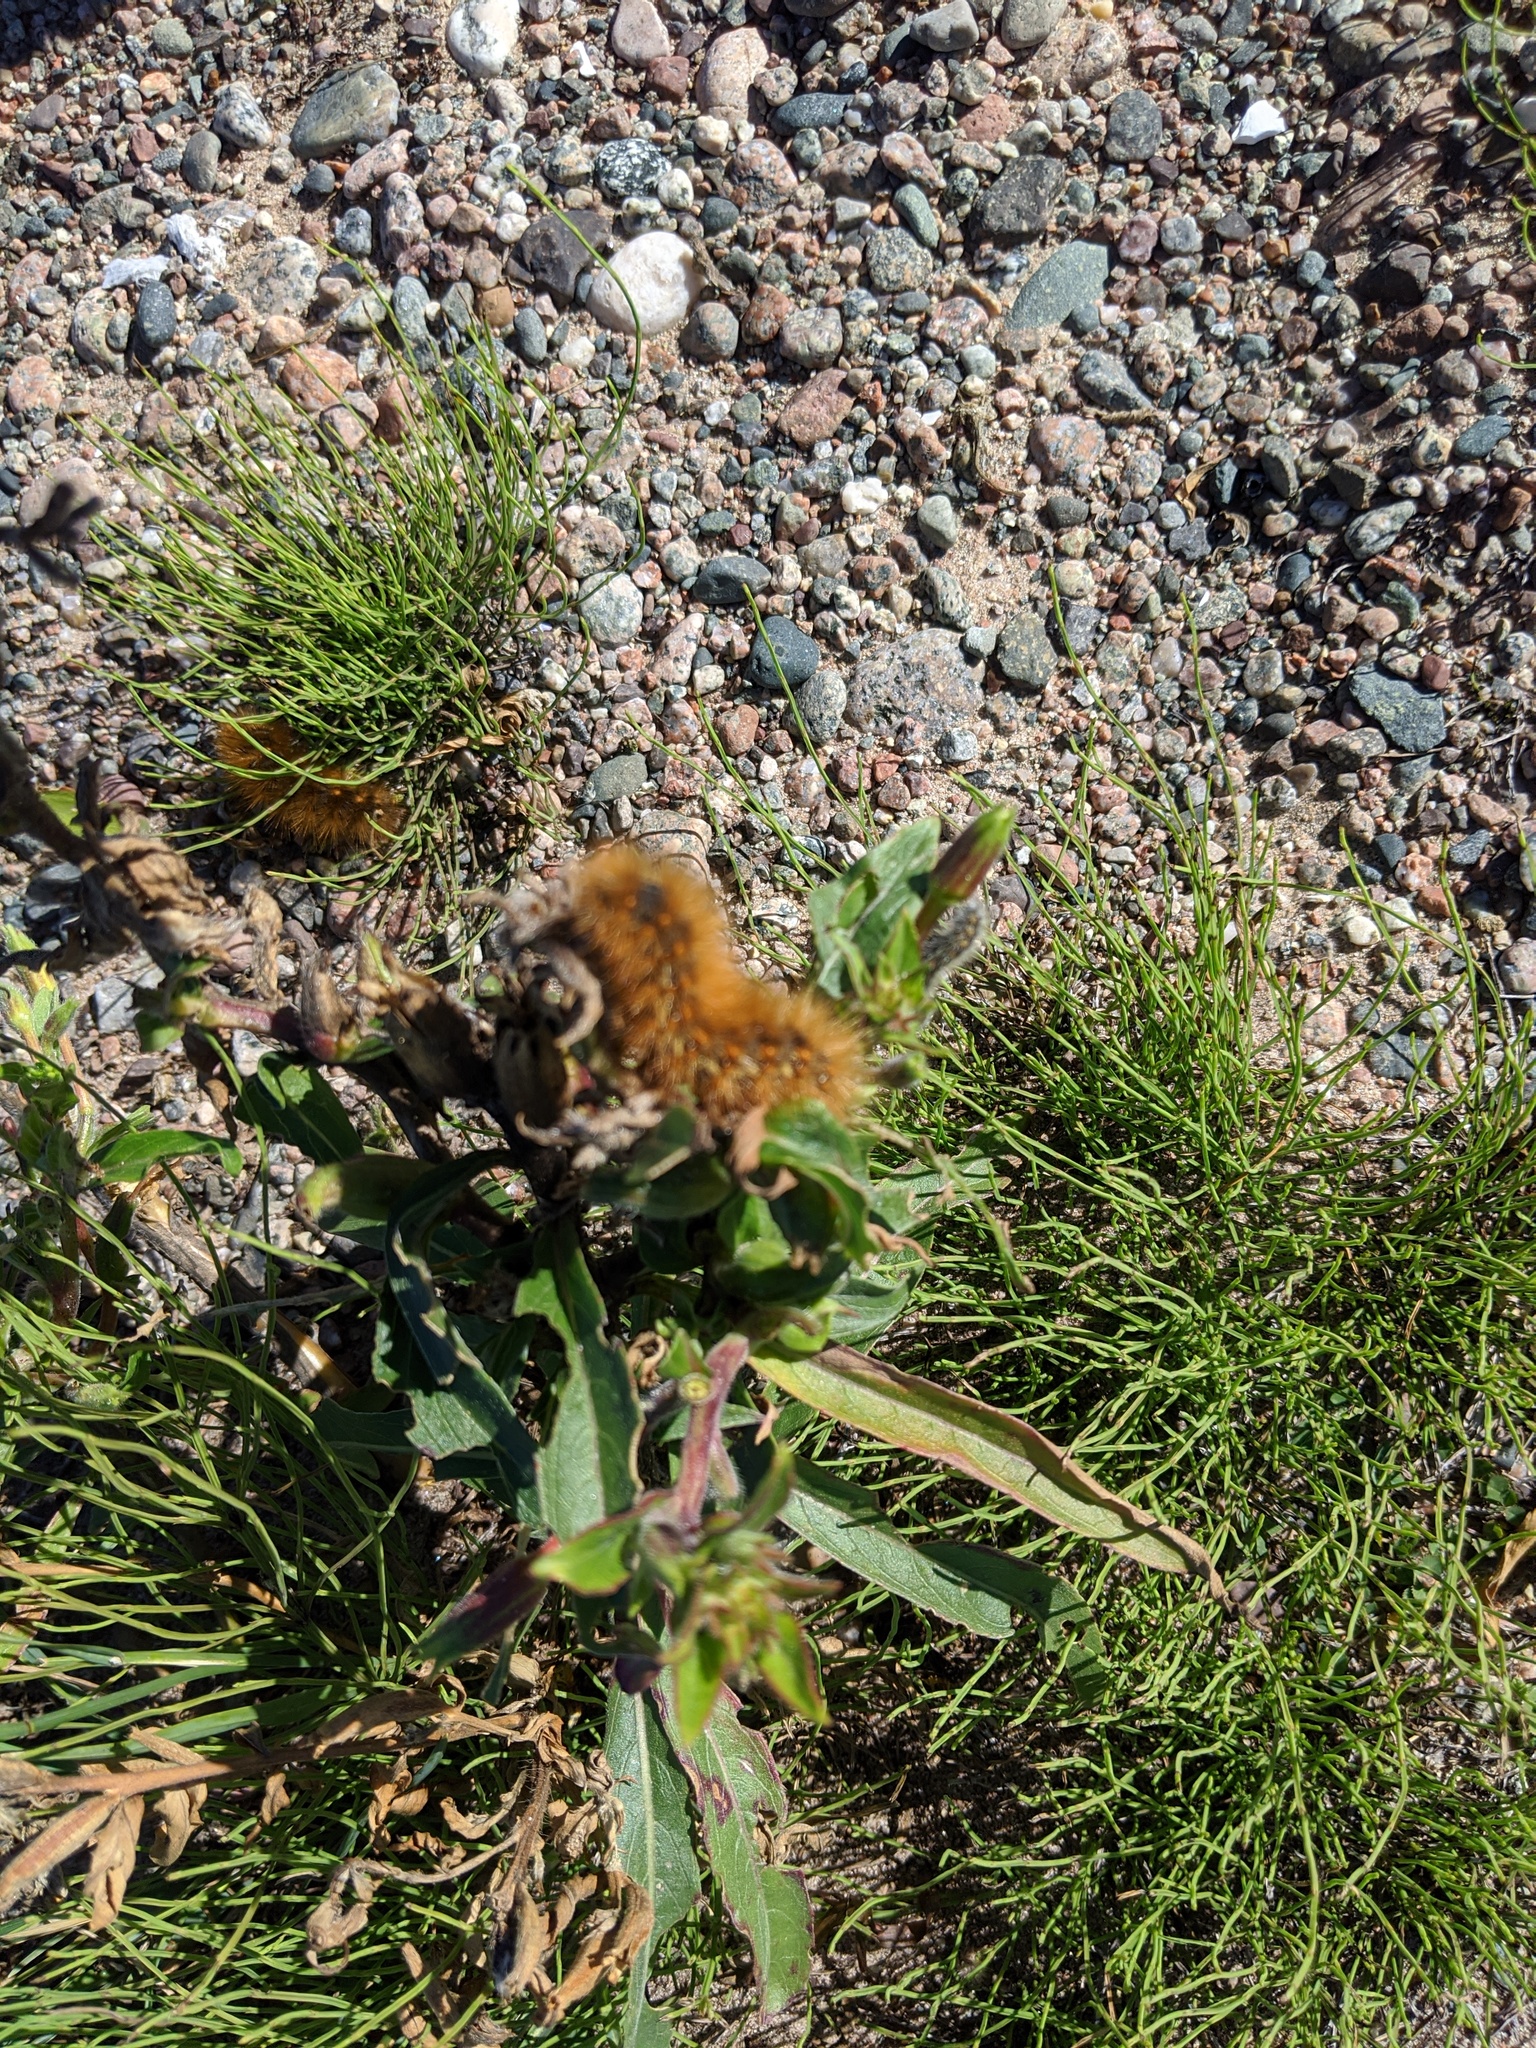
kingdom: Animalia
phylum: Arthropoda
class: Insecta
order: Lepidoptera
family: Erebidae
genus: Estigmene
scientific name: Estigmene acrea
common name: Salt marsh moth
